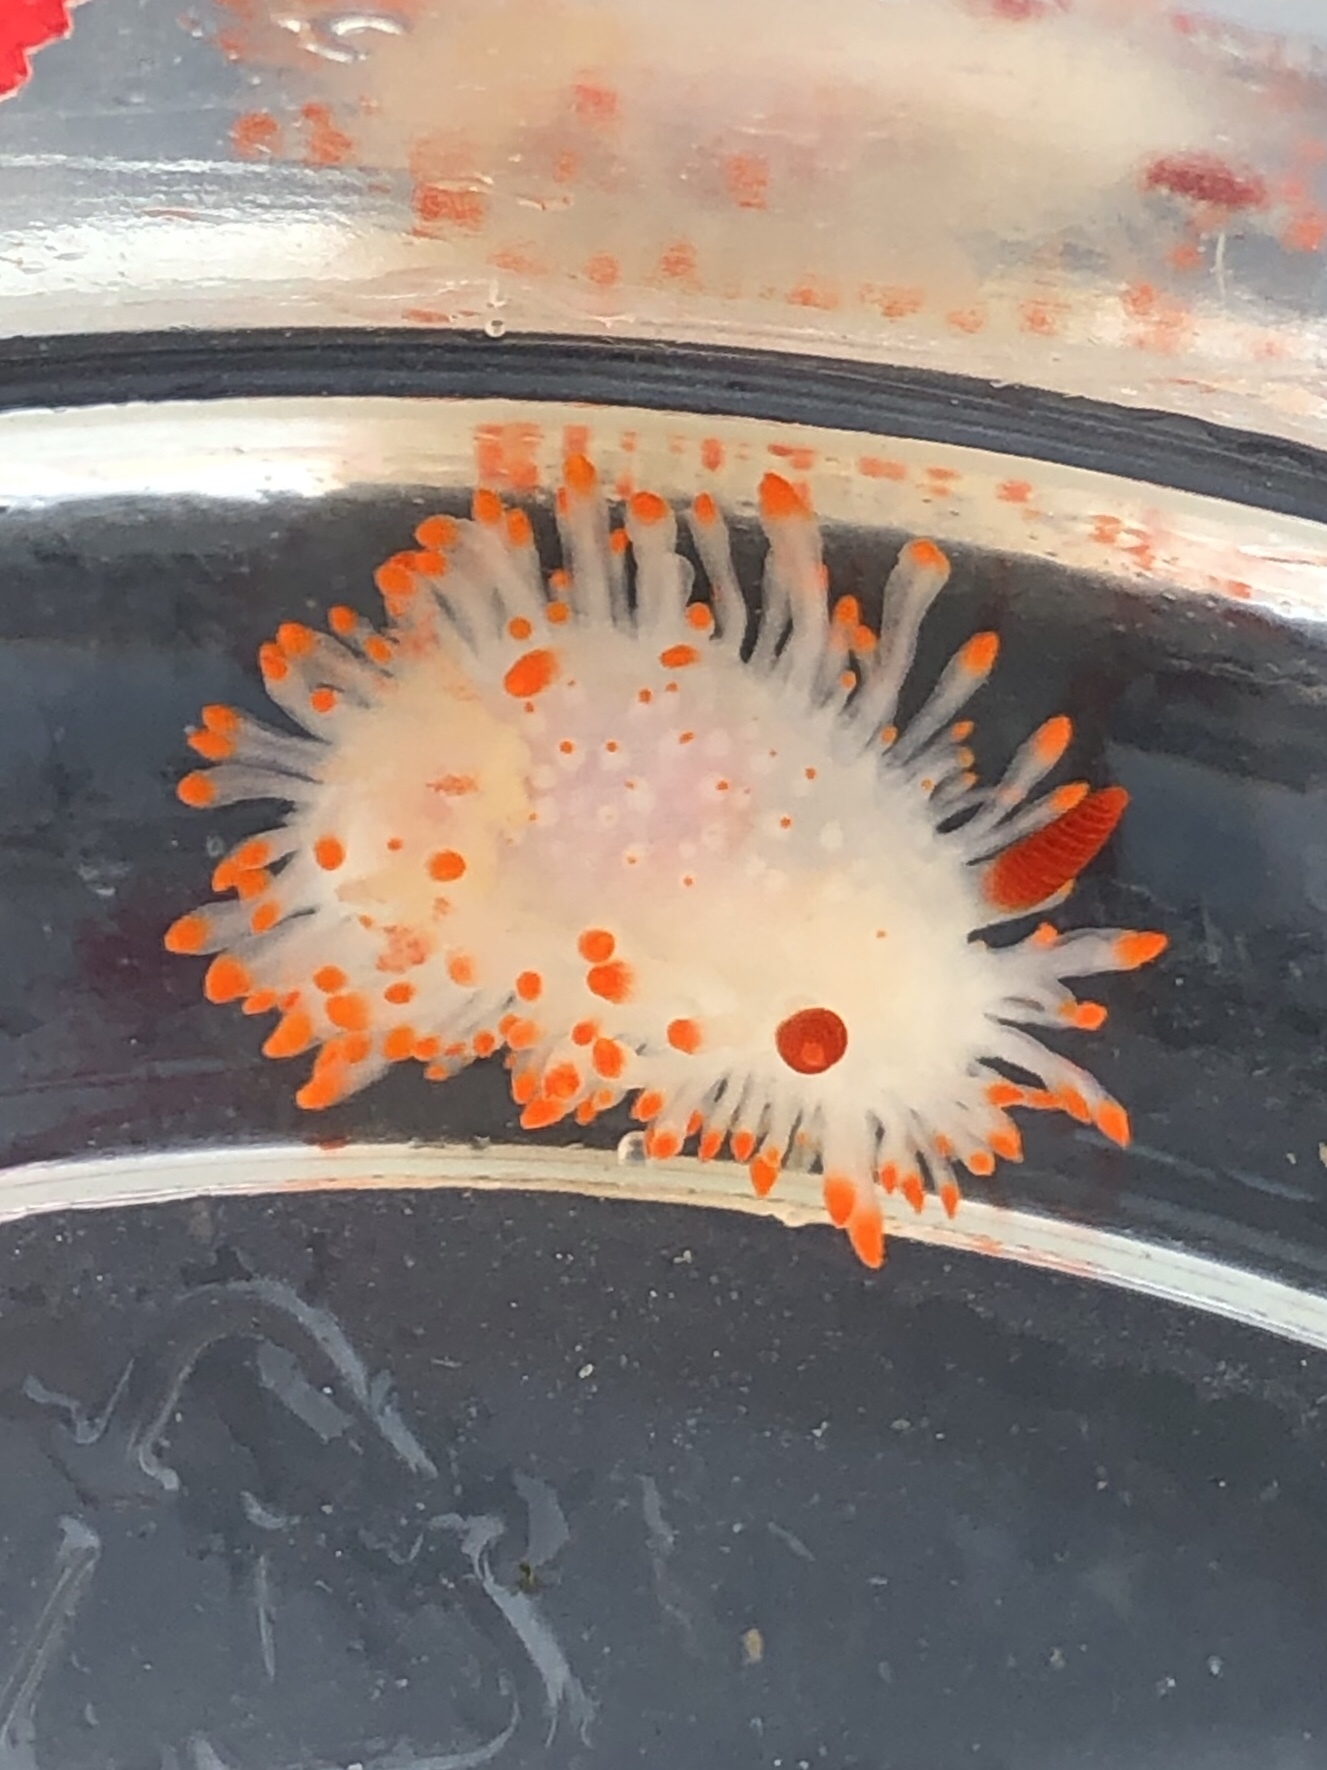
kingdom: Animalia
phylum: Mollusca
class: Gastropoda
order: Nudibranchia
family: Polyceridae
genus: Limacia
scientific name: Limacia cockerelli
